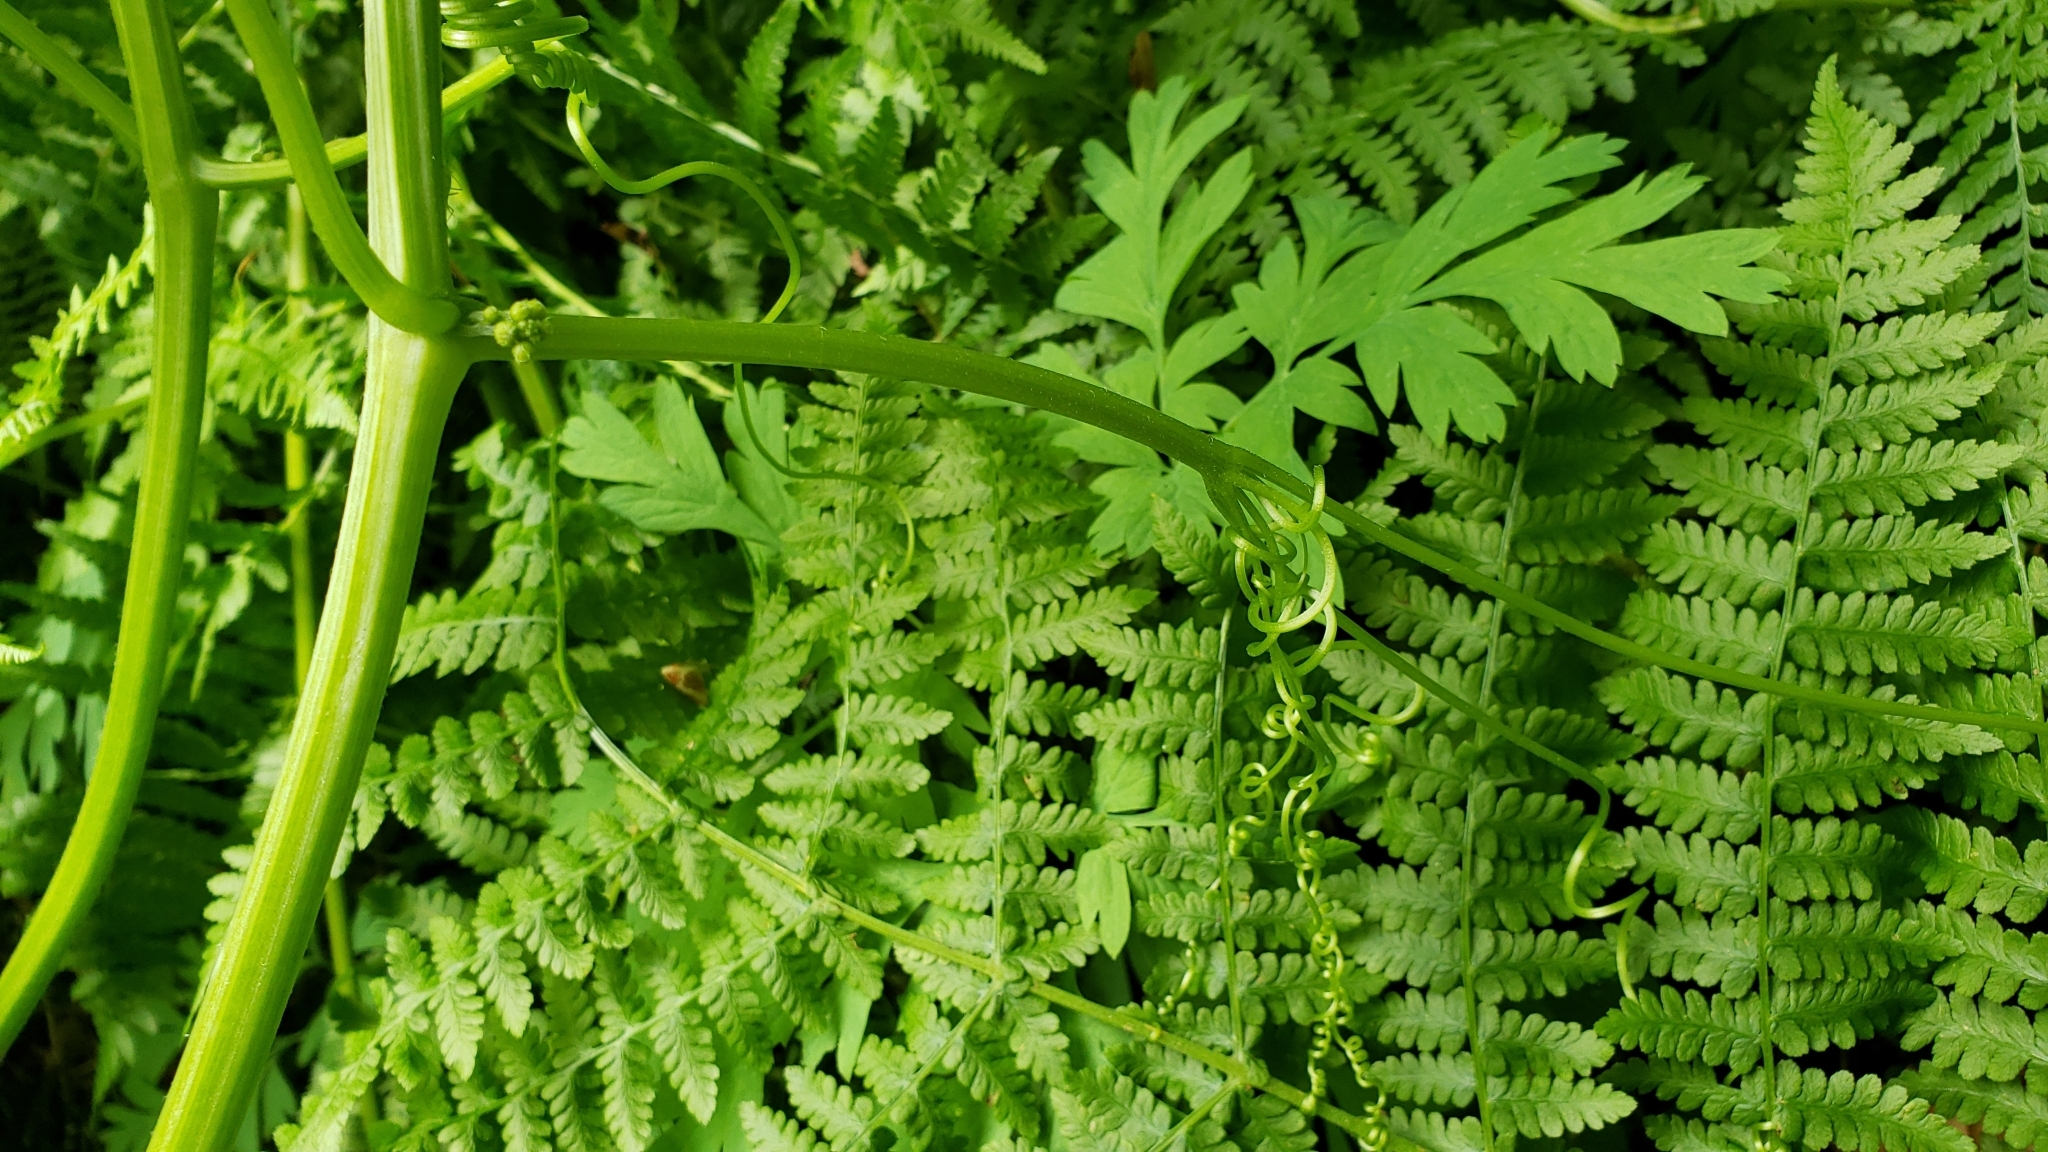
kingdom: Plantae
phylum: Tracheophyta
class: Magnoliopsida
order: Cucurbitales
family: Cucurbitaceae
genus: Marah
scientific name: Marah oregana
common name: Coastal manroot
